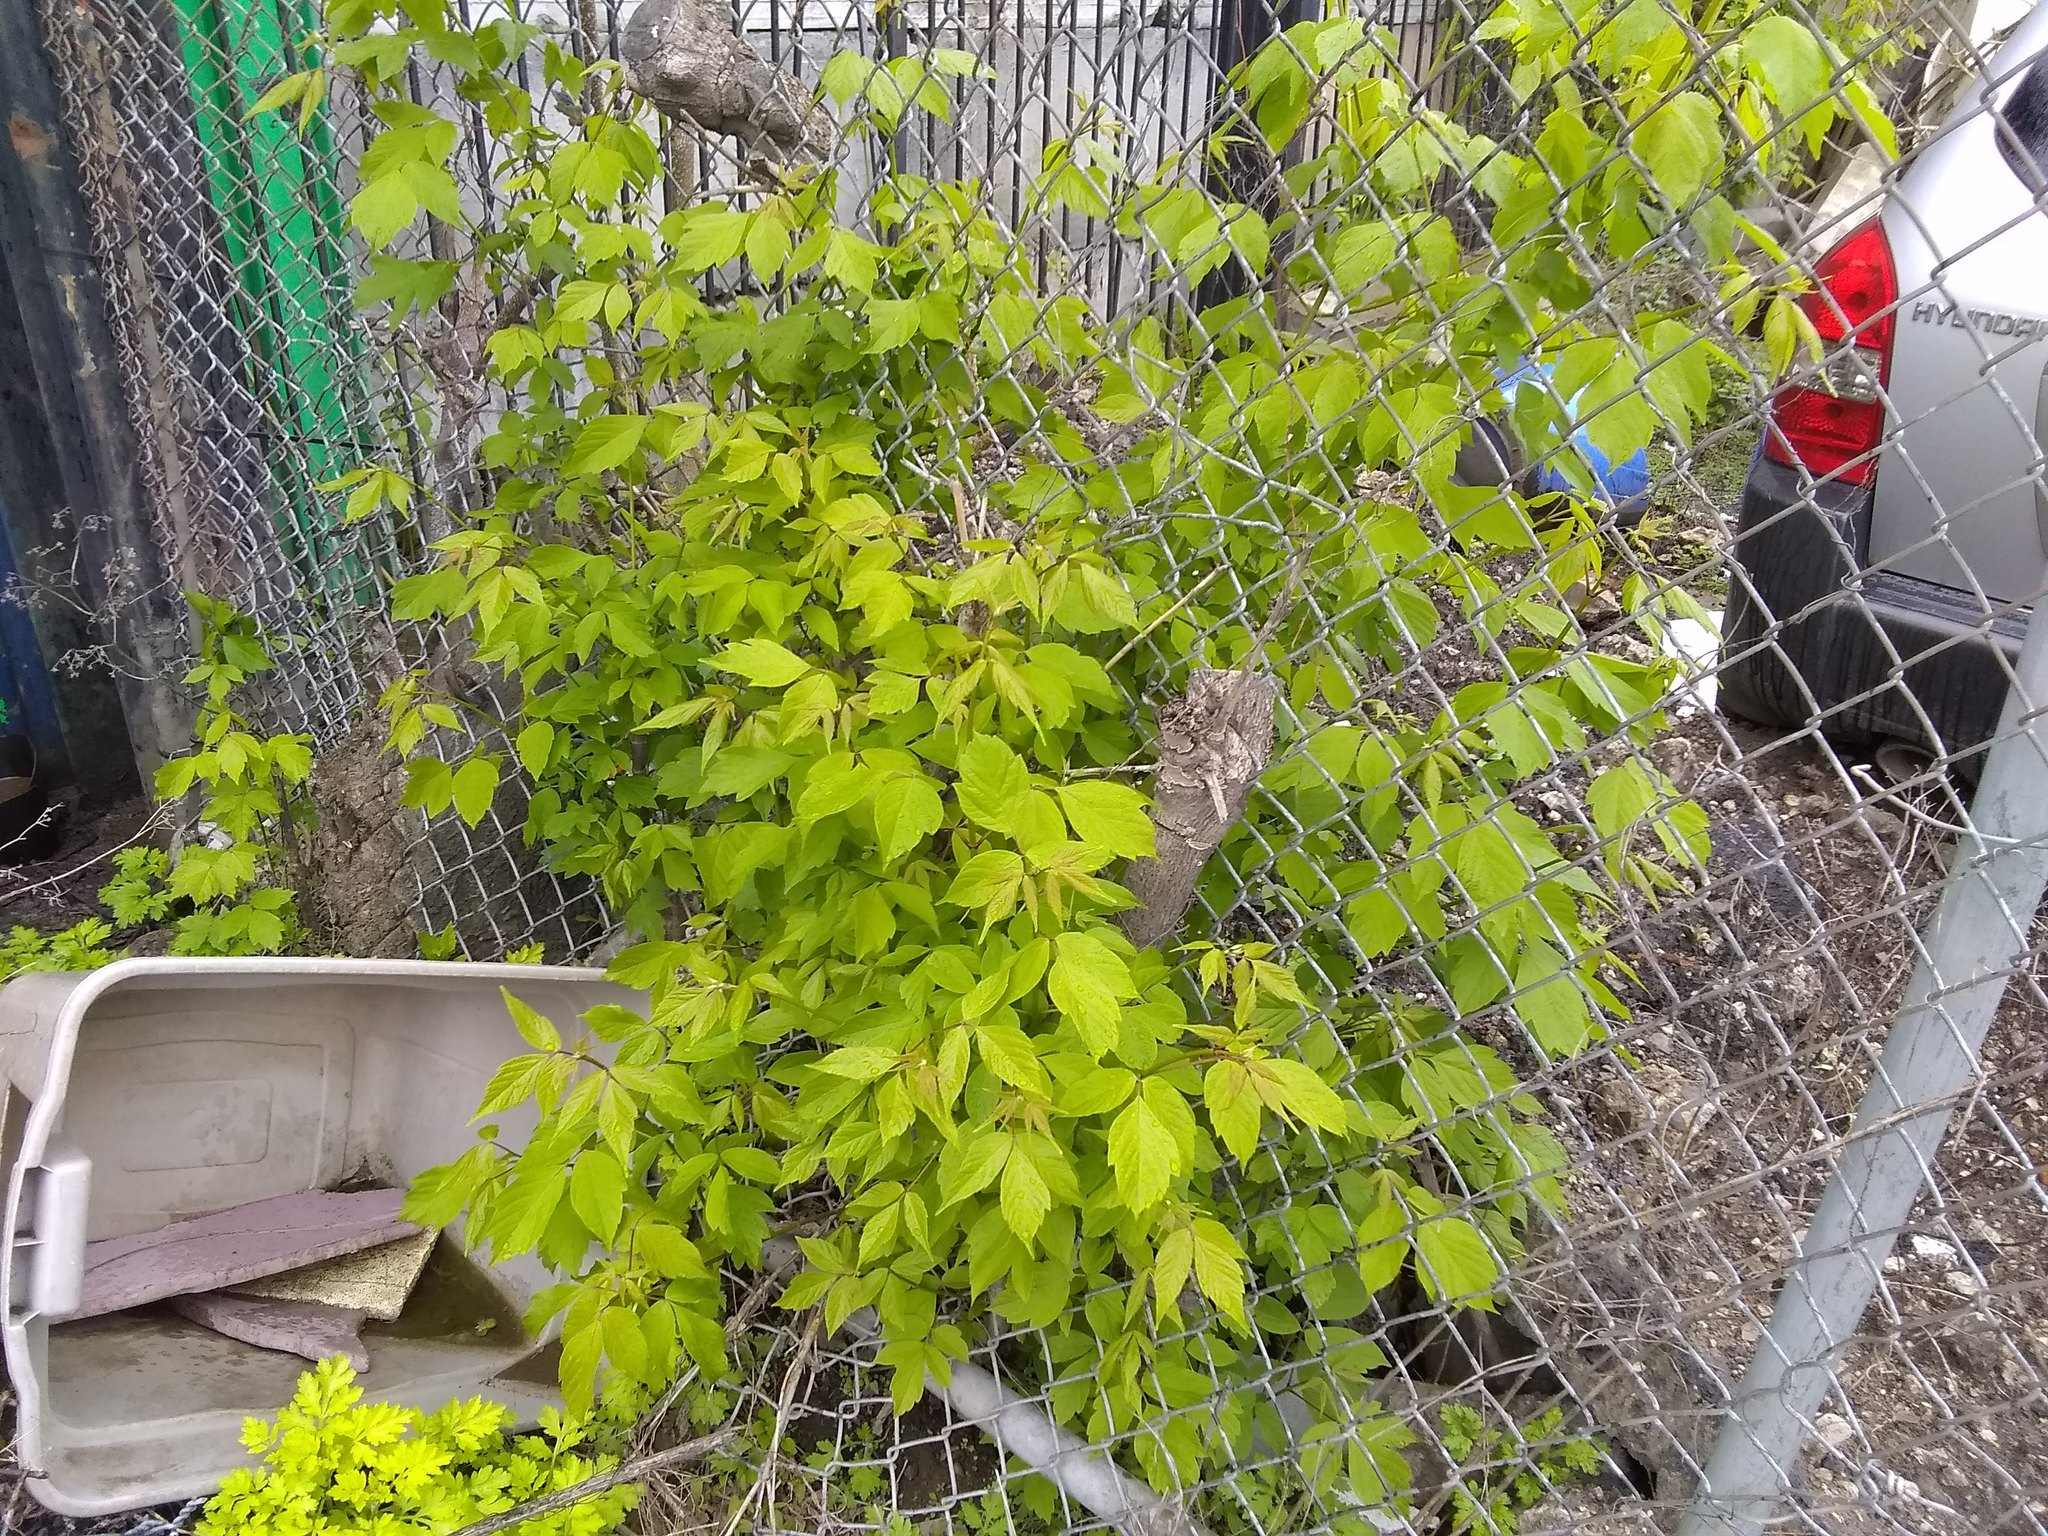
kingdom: Plantae
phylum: Tracheophyta
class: Magnoliopsida
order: Sapindales
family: Sapindaceae
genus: Acer
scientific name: Acer negundo
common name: Ashleaf maple
